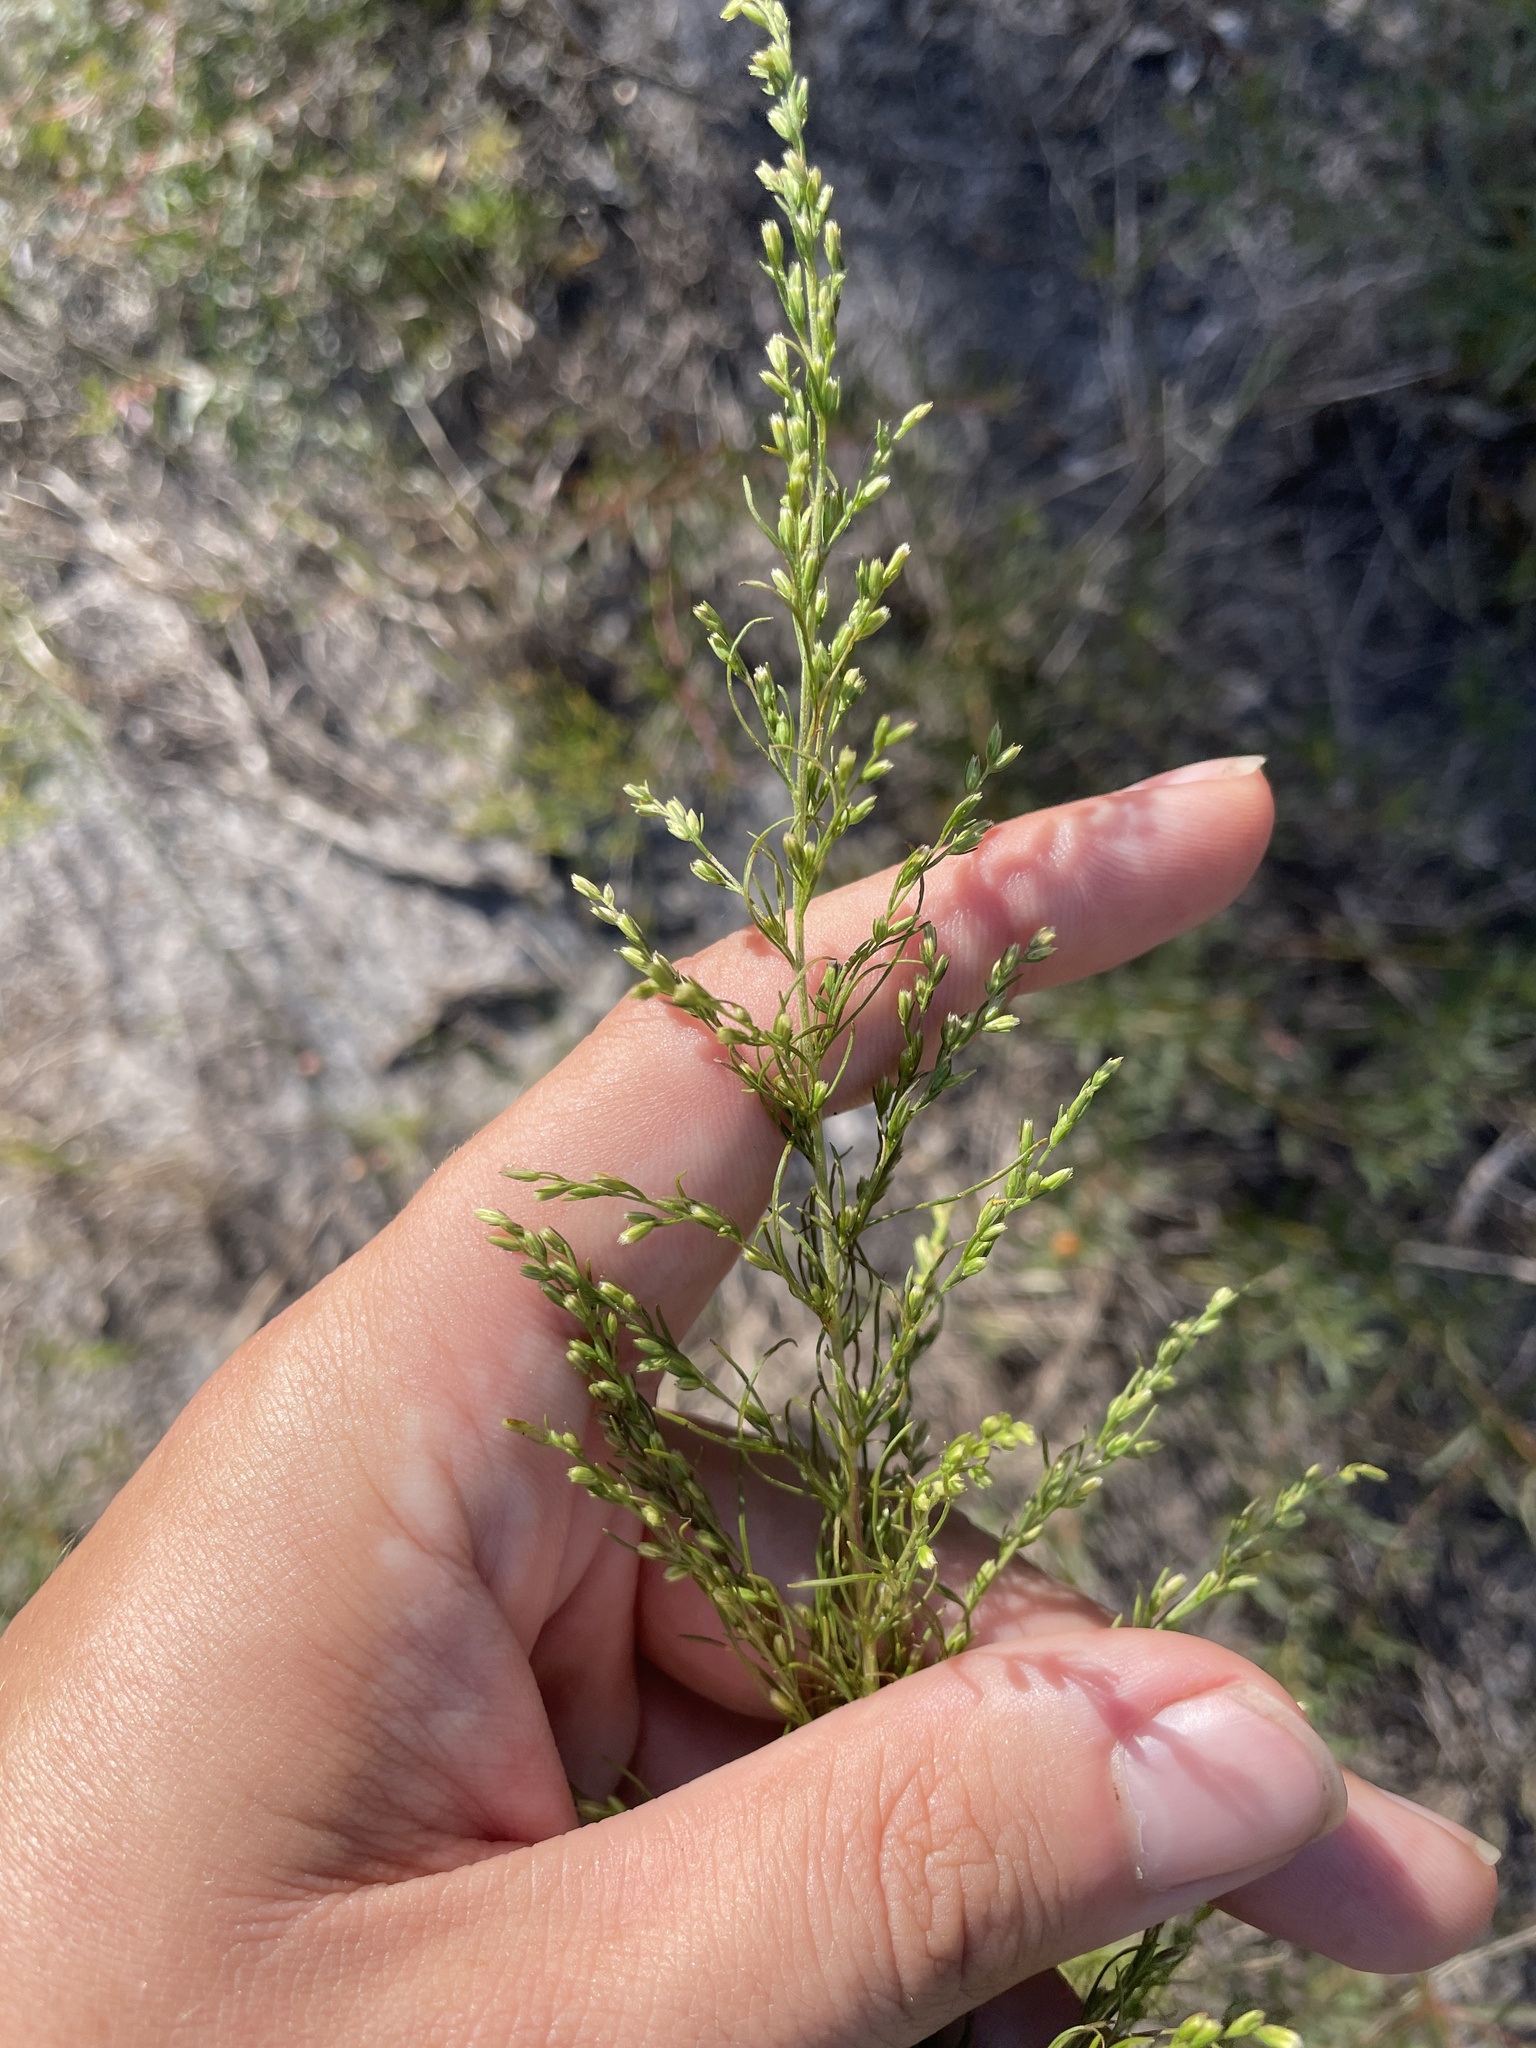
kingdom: Plantae
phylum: Tracheophyta
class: Magnoliopsida
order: Asterales
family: Asteraceae
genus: Eupatorium
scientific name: Eupatorium capillifolium
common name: Dog-fennel
